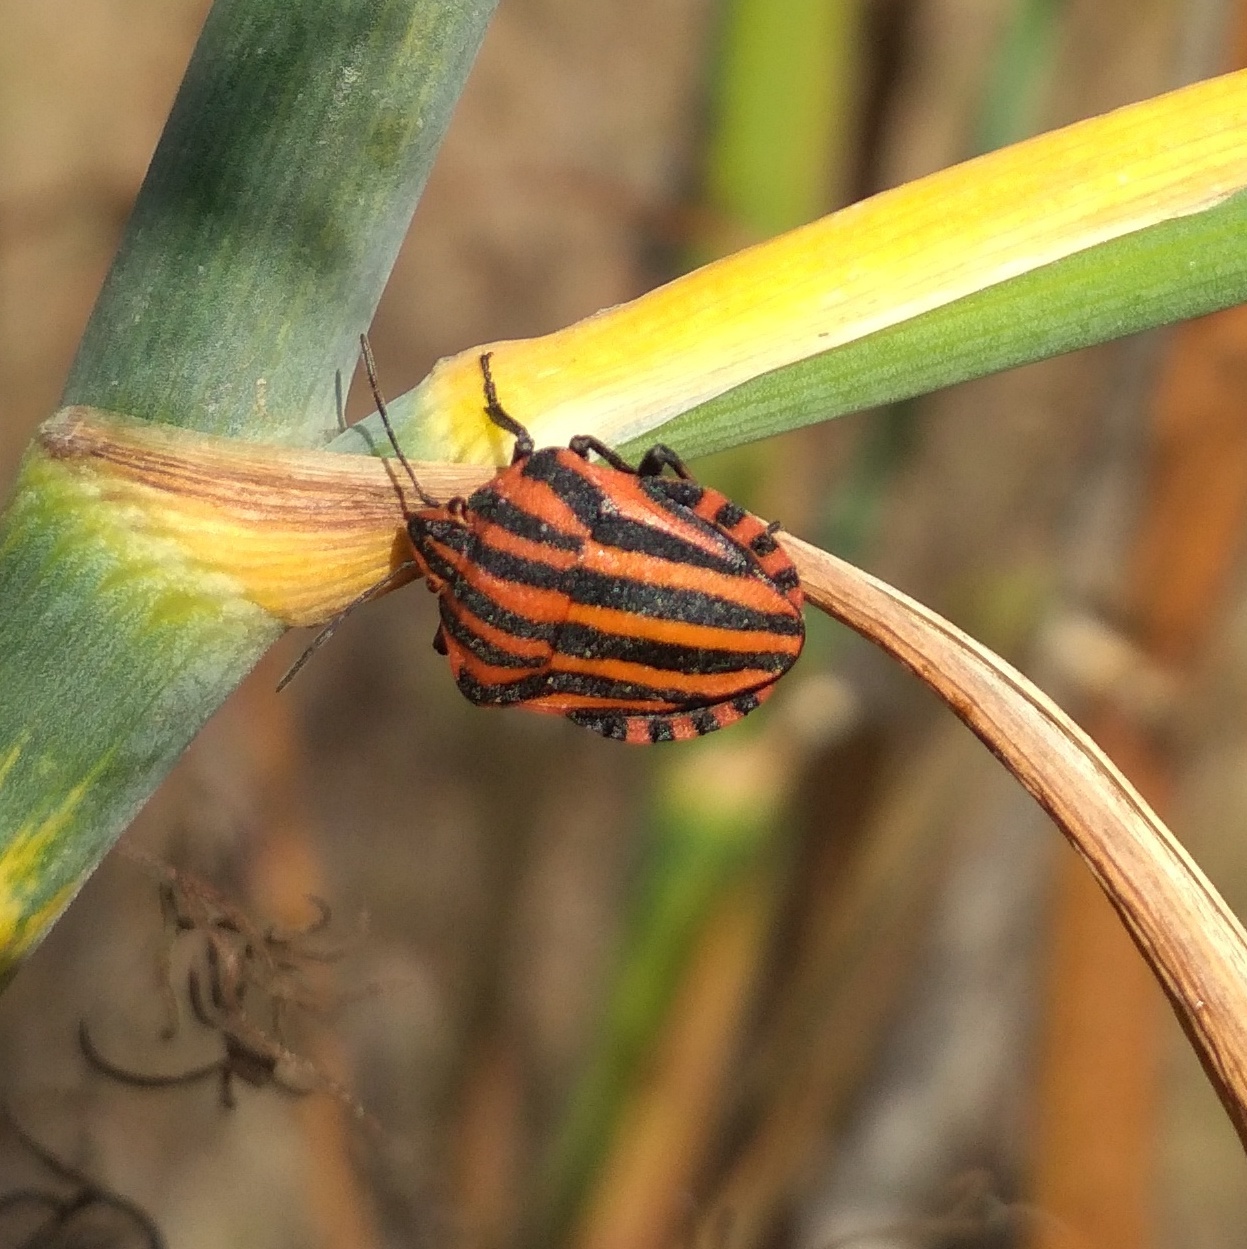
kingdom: Animalia
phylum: Arthropoda
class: Insecta
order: Hemiptera
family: Pentatomidae
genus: Graphosoma
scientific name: Graphosoma italicum
